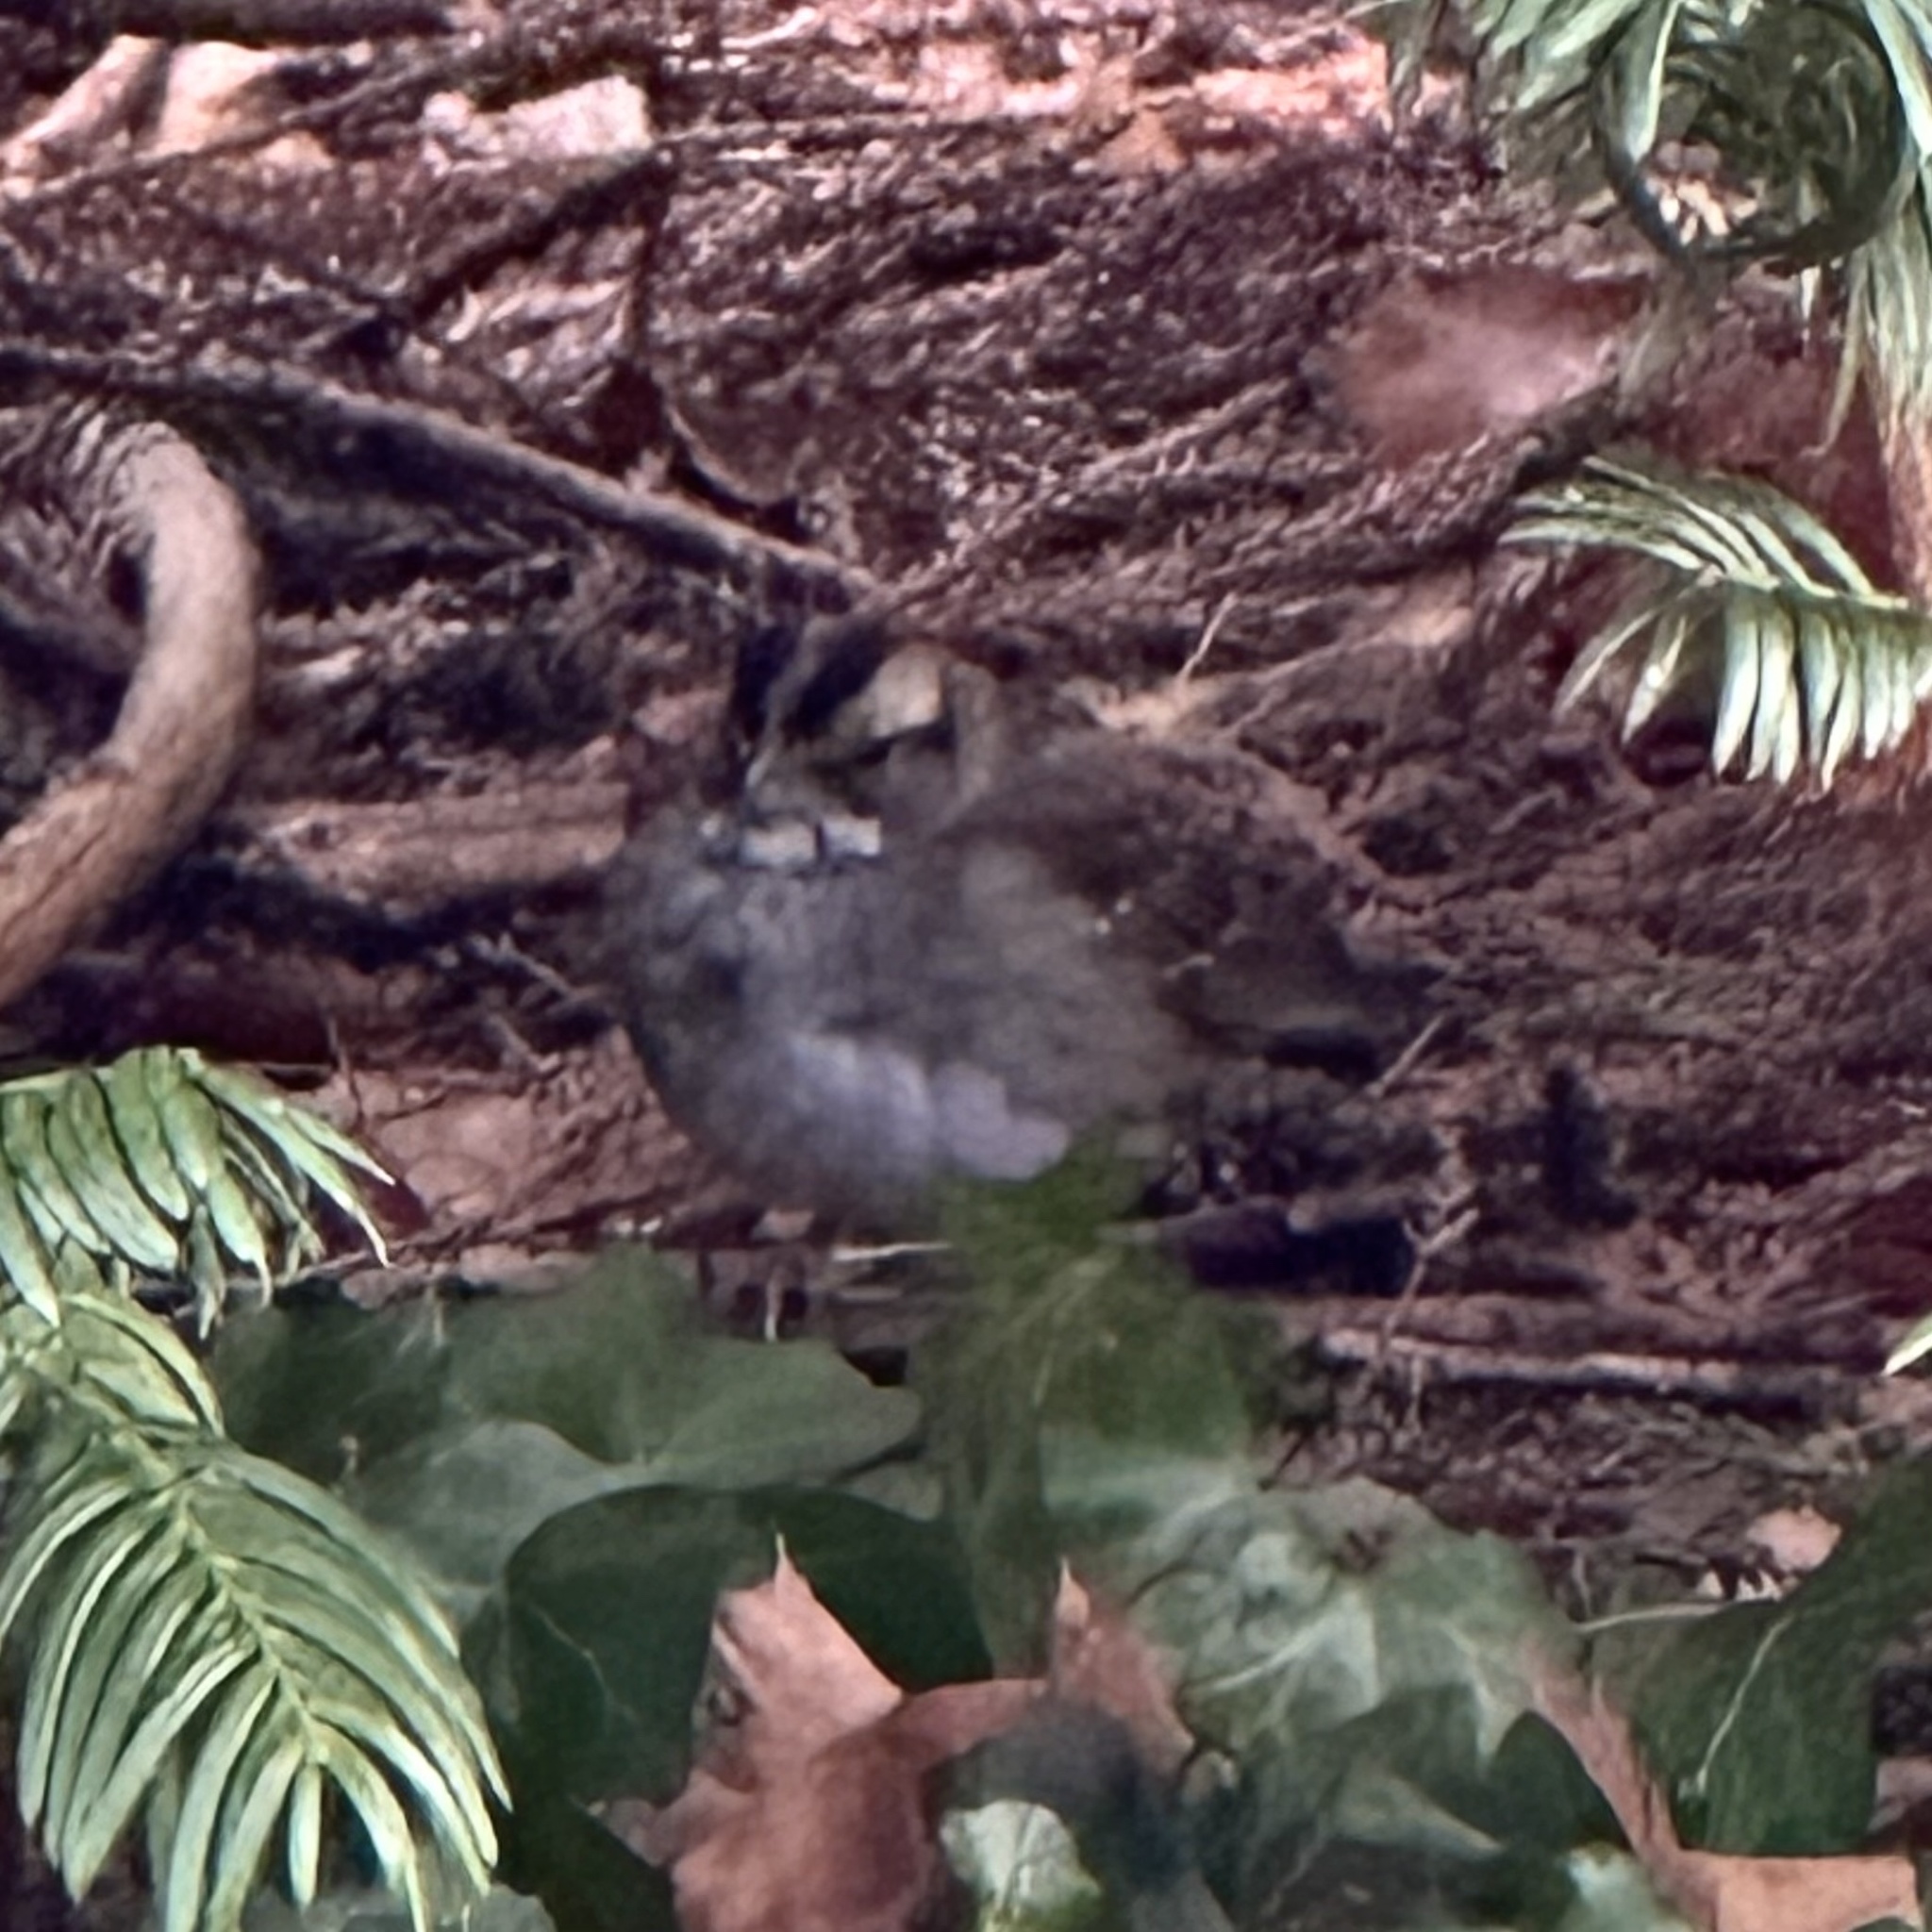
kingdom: Animalia
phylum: Chordata
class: Aves
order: Passeriformes
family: Passerellidae
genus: Zonotrichia
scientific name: Zonotrichia albicollis
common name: White-throated sparrow
